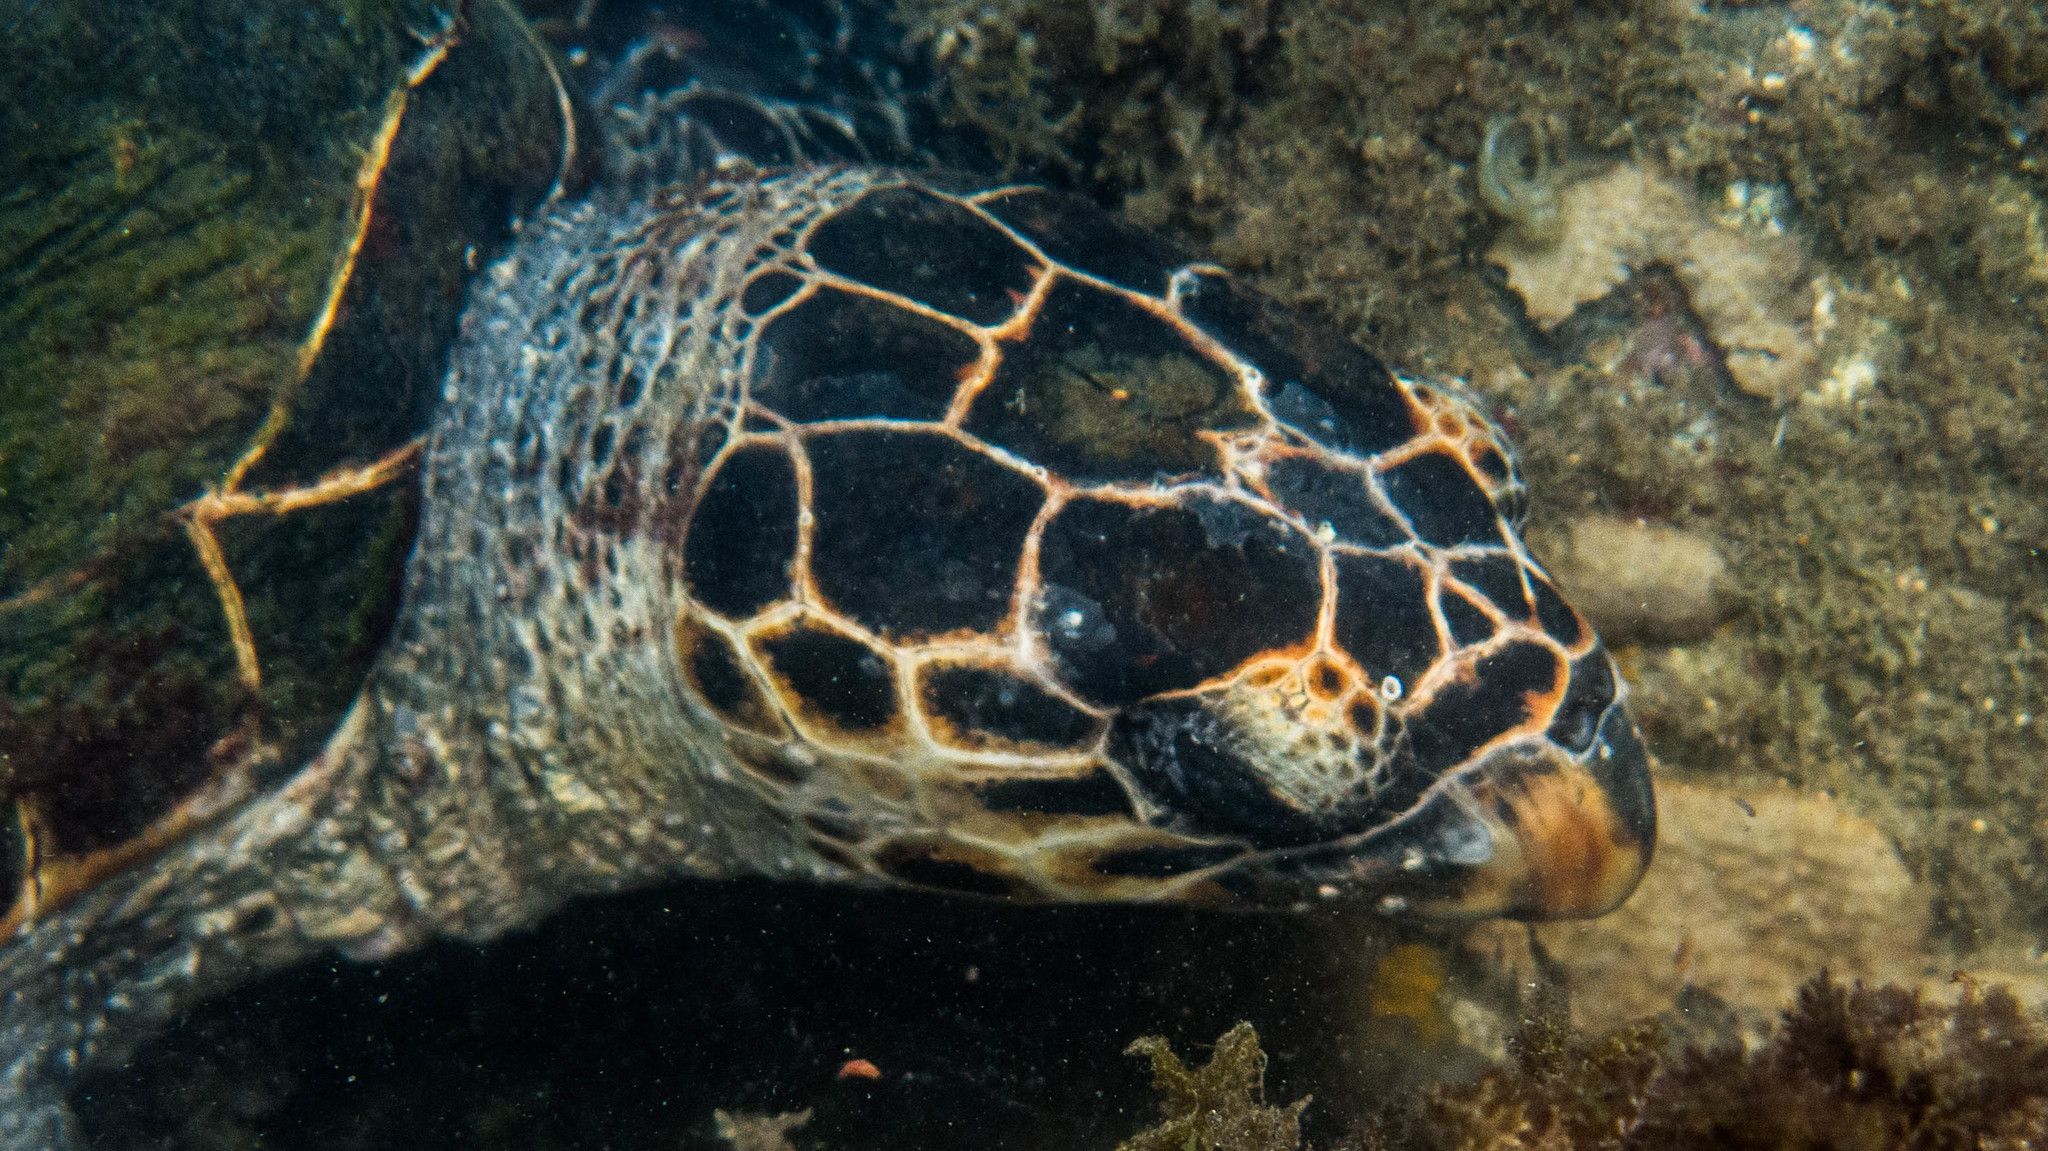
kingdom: Animalia
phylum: Chordata
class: Testudines
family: Cheloniidae
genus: Eretmochelys
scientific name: Eretmochelys imbricata
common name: Hawksbill turtle
